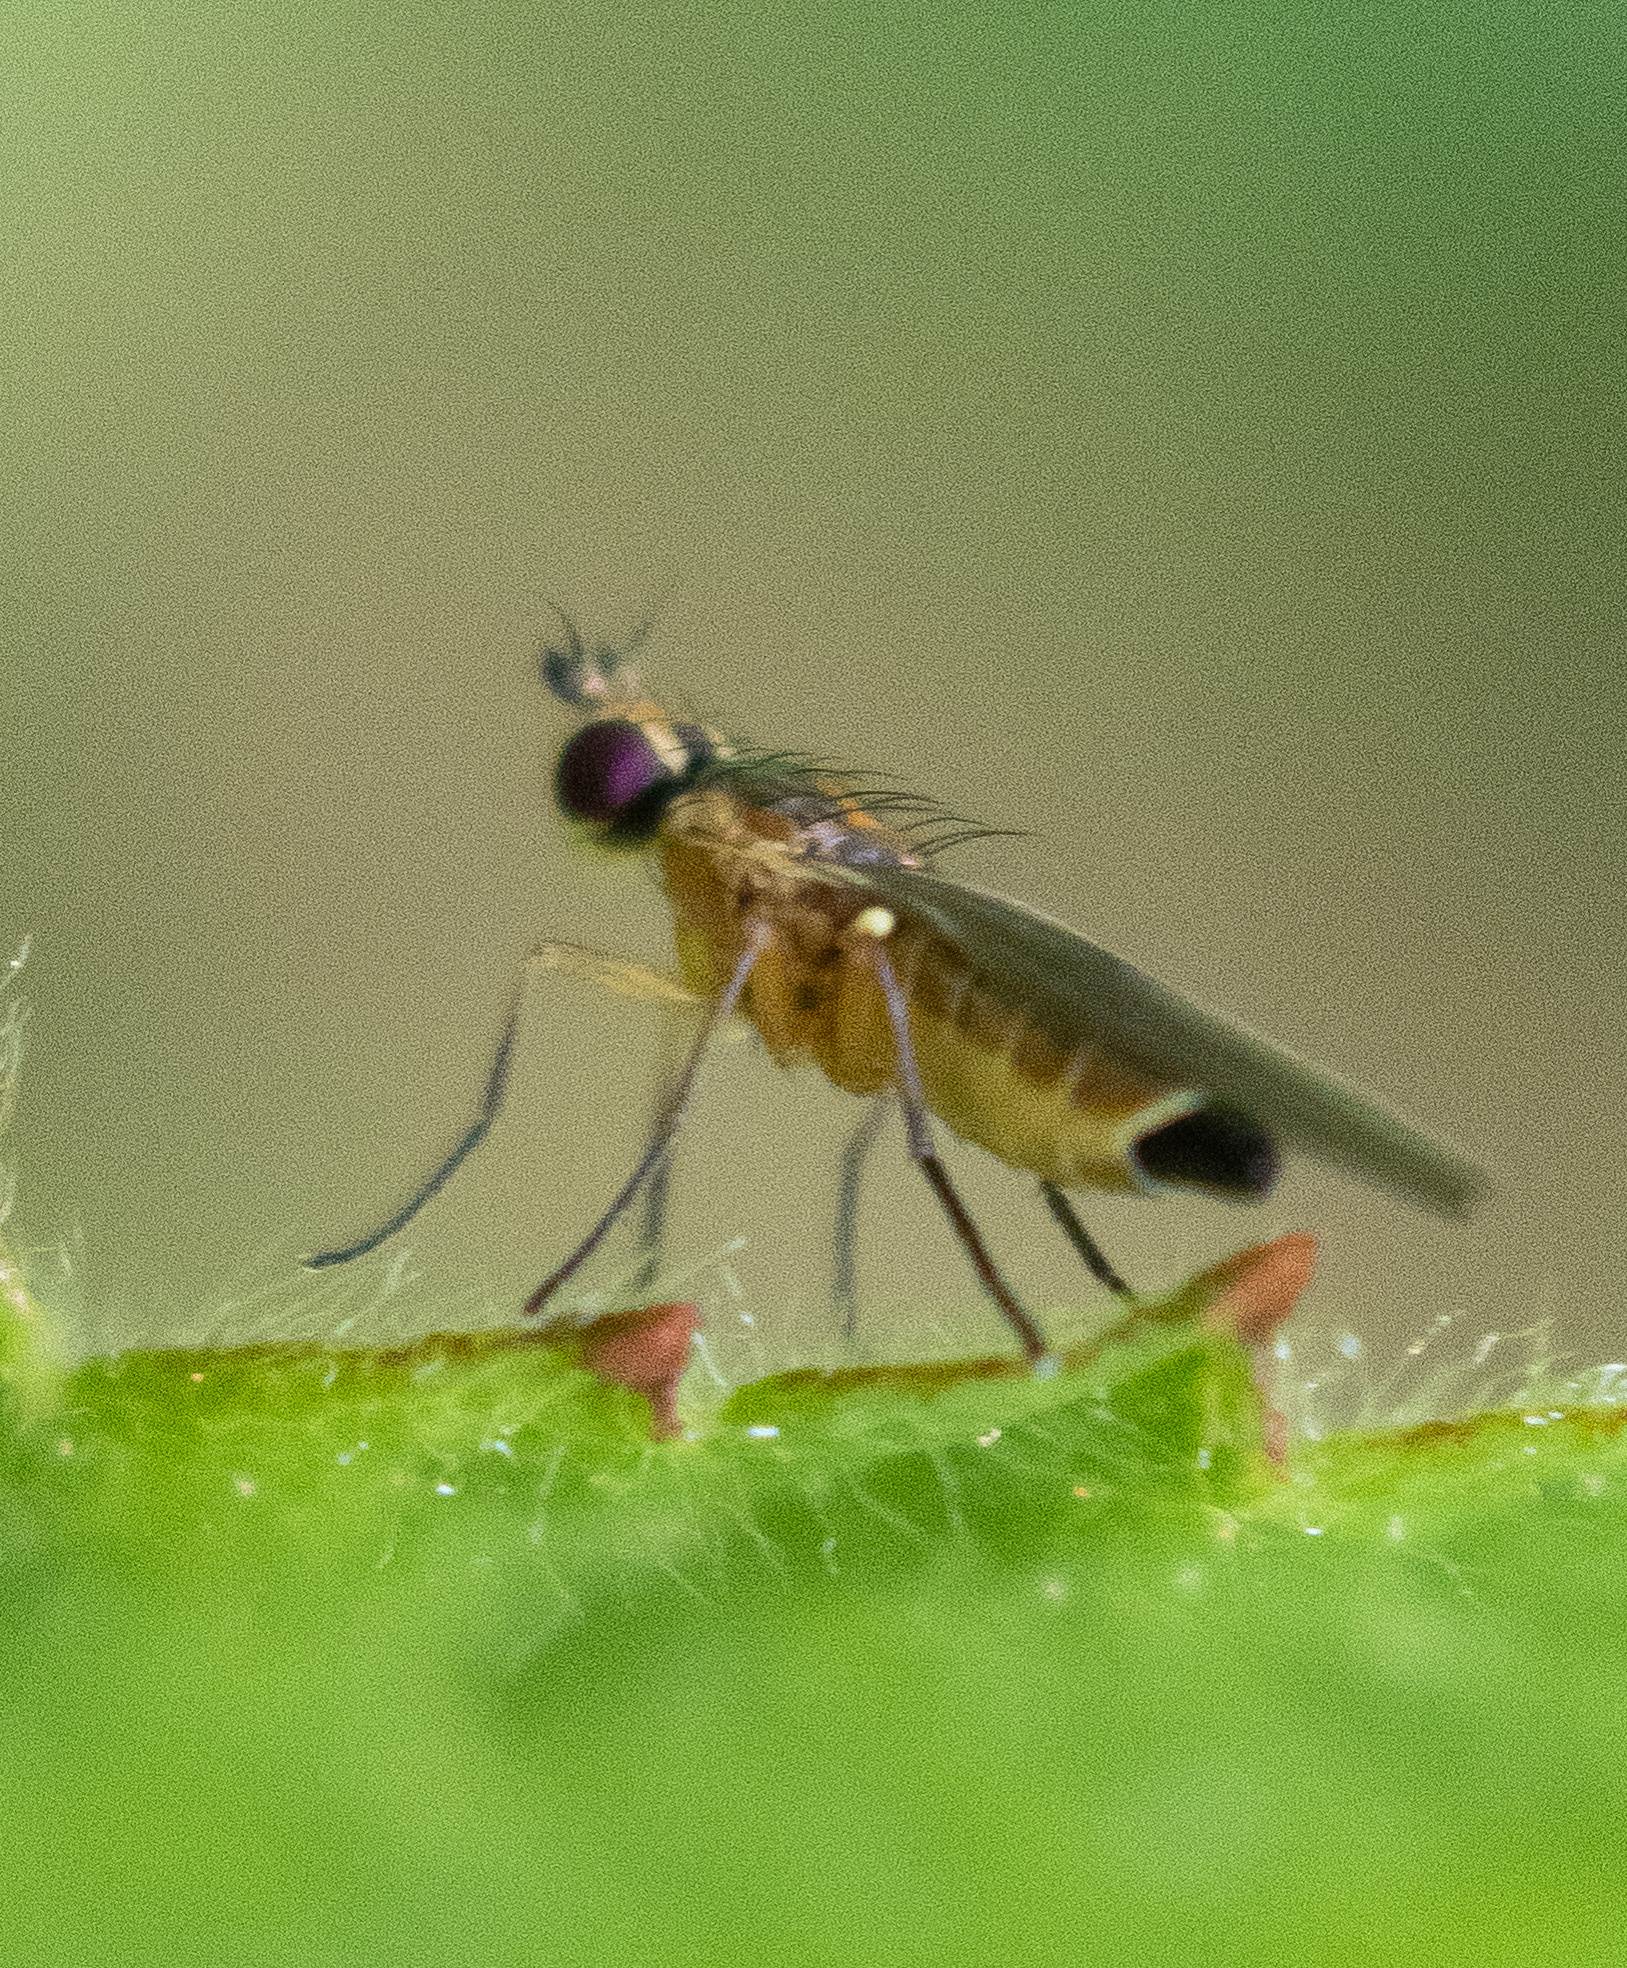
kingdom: Animalia
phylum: Arthropoda
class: Insecta
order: Diptera
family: Agromyzidae
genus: Cerodontha
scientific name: Cerodontha dorsalis
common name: Grass sheathminer fly
